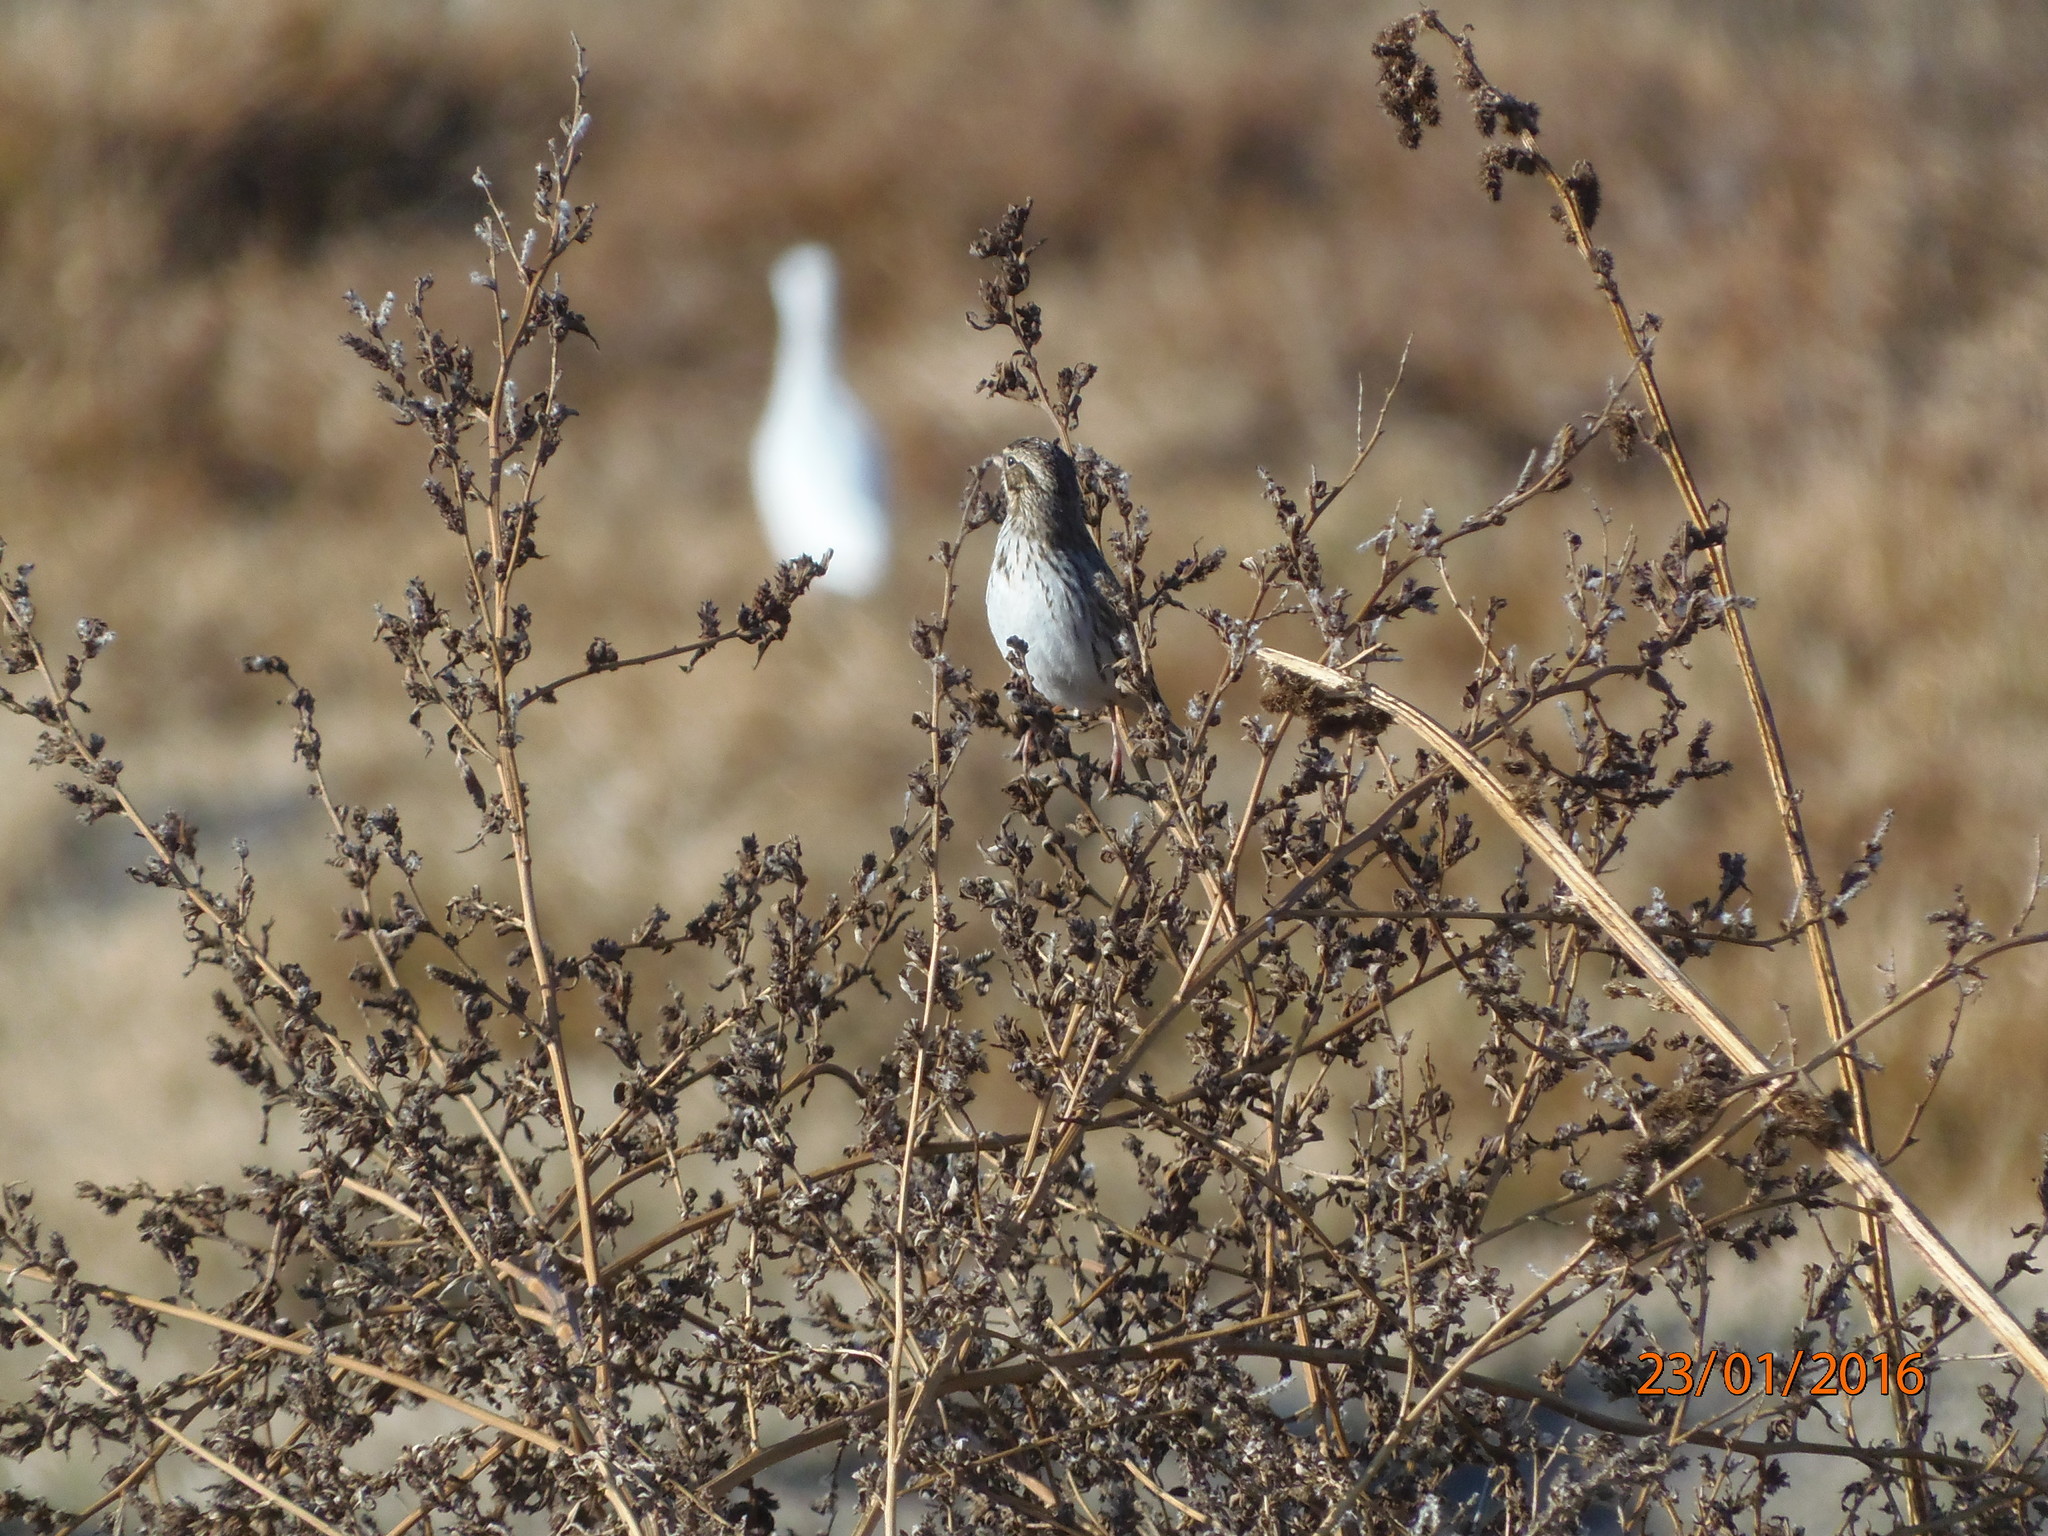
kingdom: Animalia
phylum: Chordata
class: Aves
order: Passeriformes
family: Passerellidae
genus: Passerculus
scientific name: Passerculus sandwichensis
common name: Savannah sparrow
